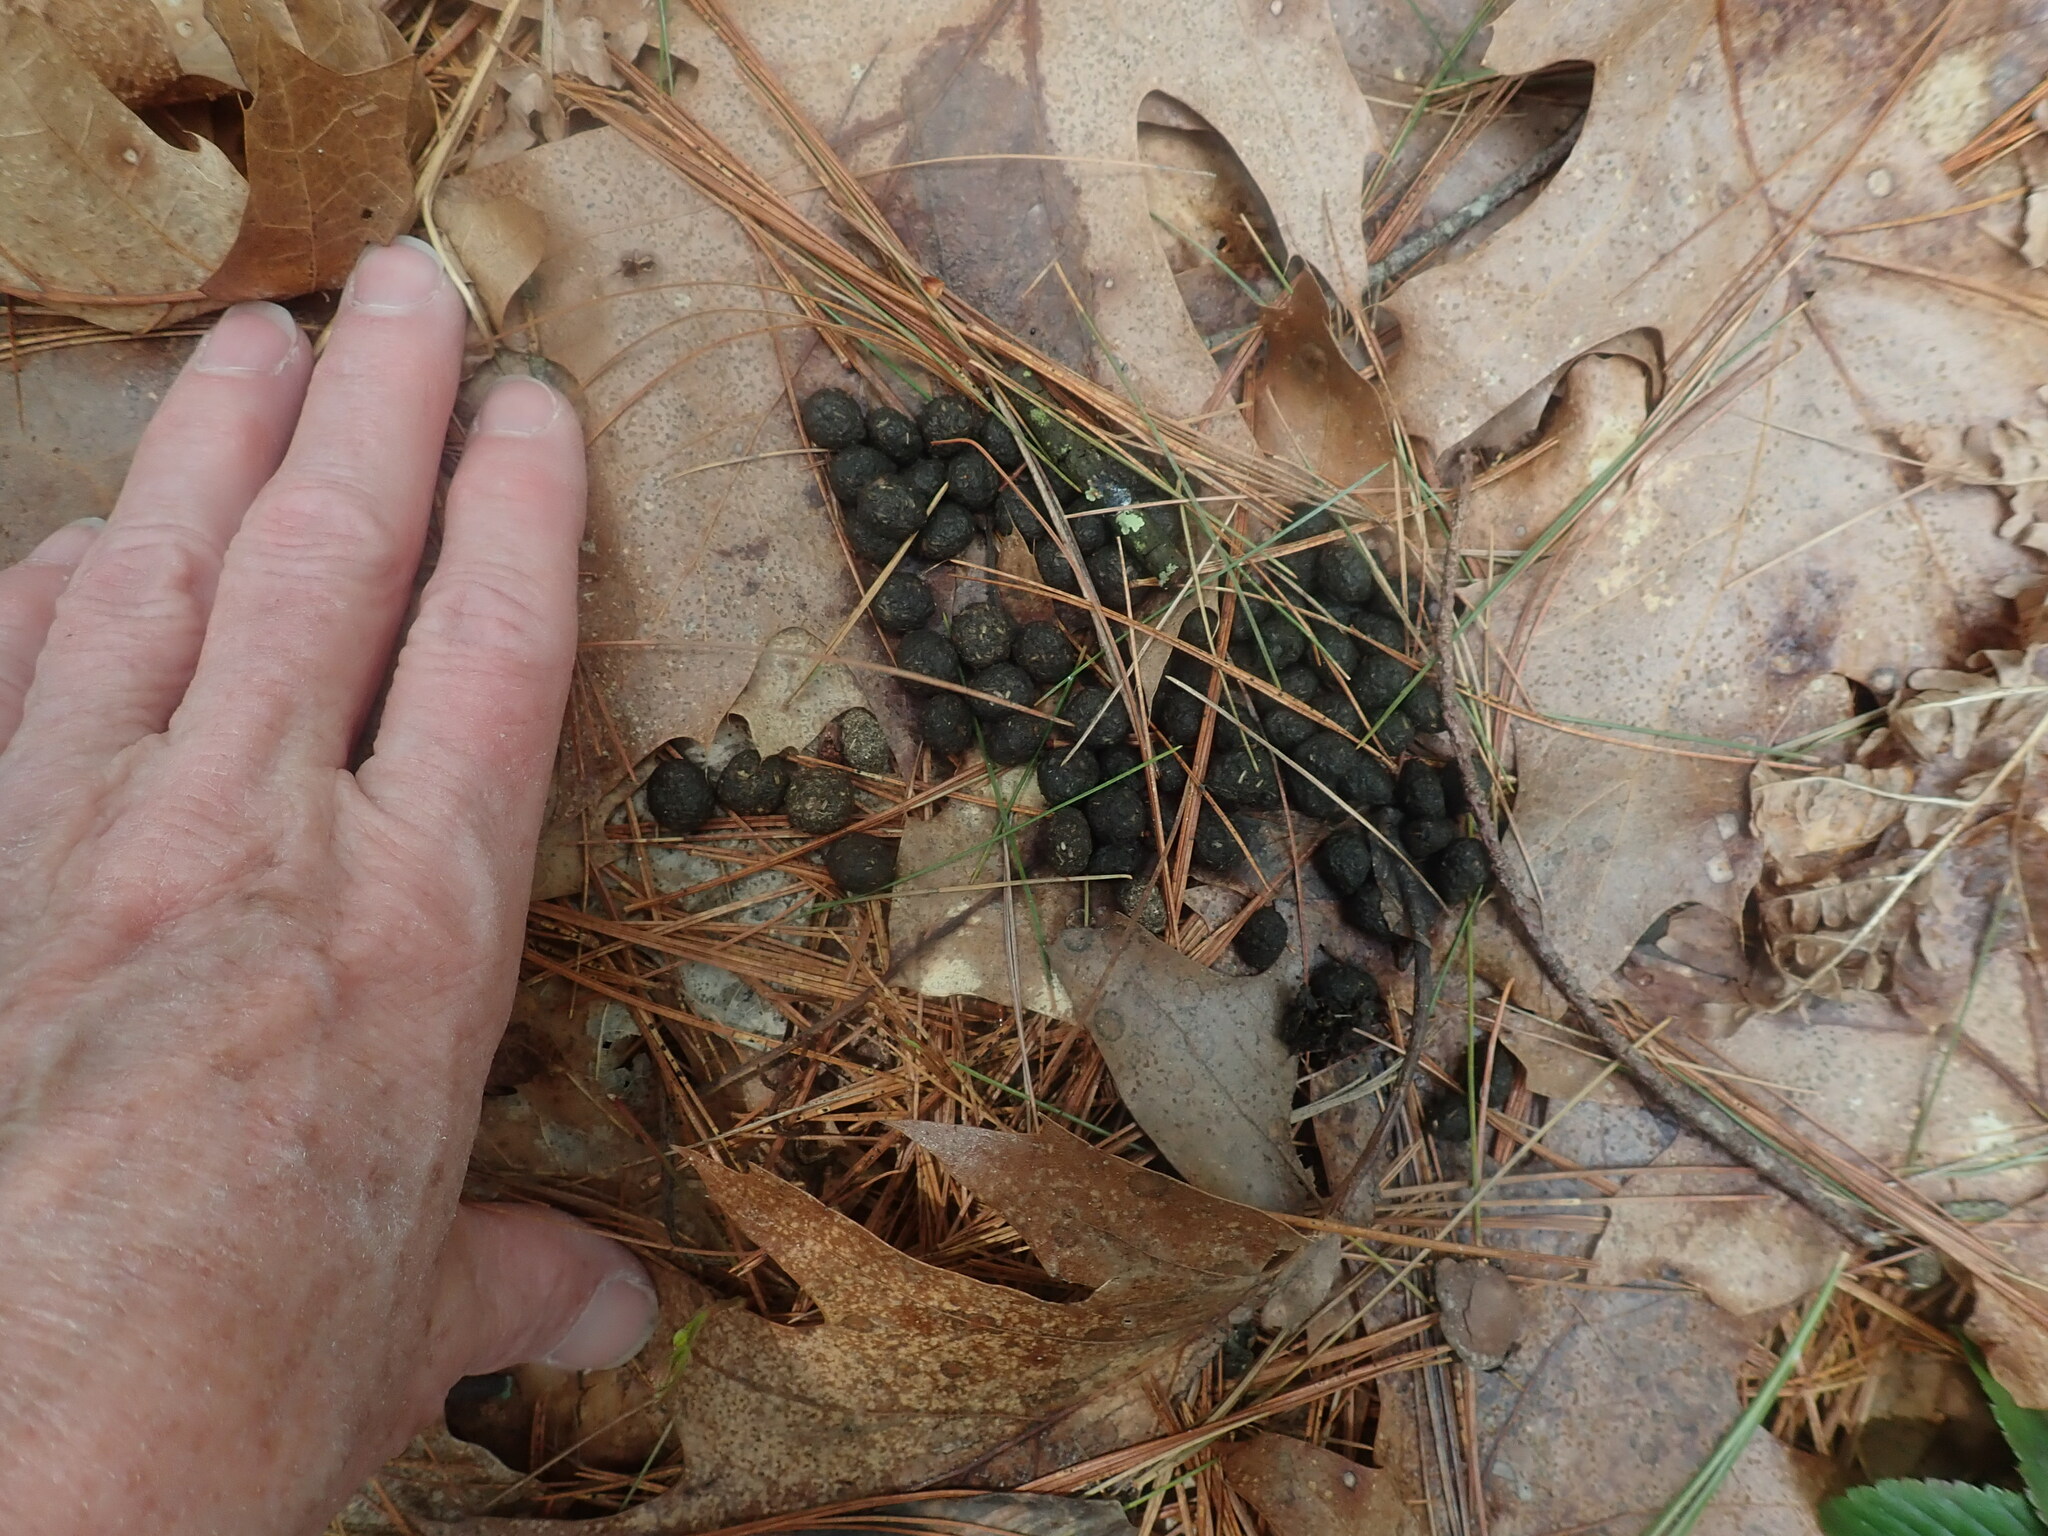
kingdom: Animalia
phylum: Chordata
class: Mammalia
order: Artiodactyla
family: Cervidae
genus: Odocoileus
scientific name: Odocoileus virginianus
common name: White-tailed deer
